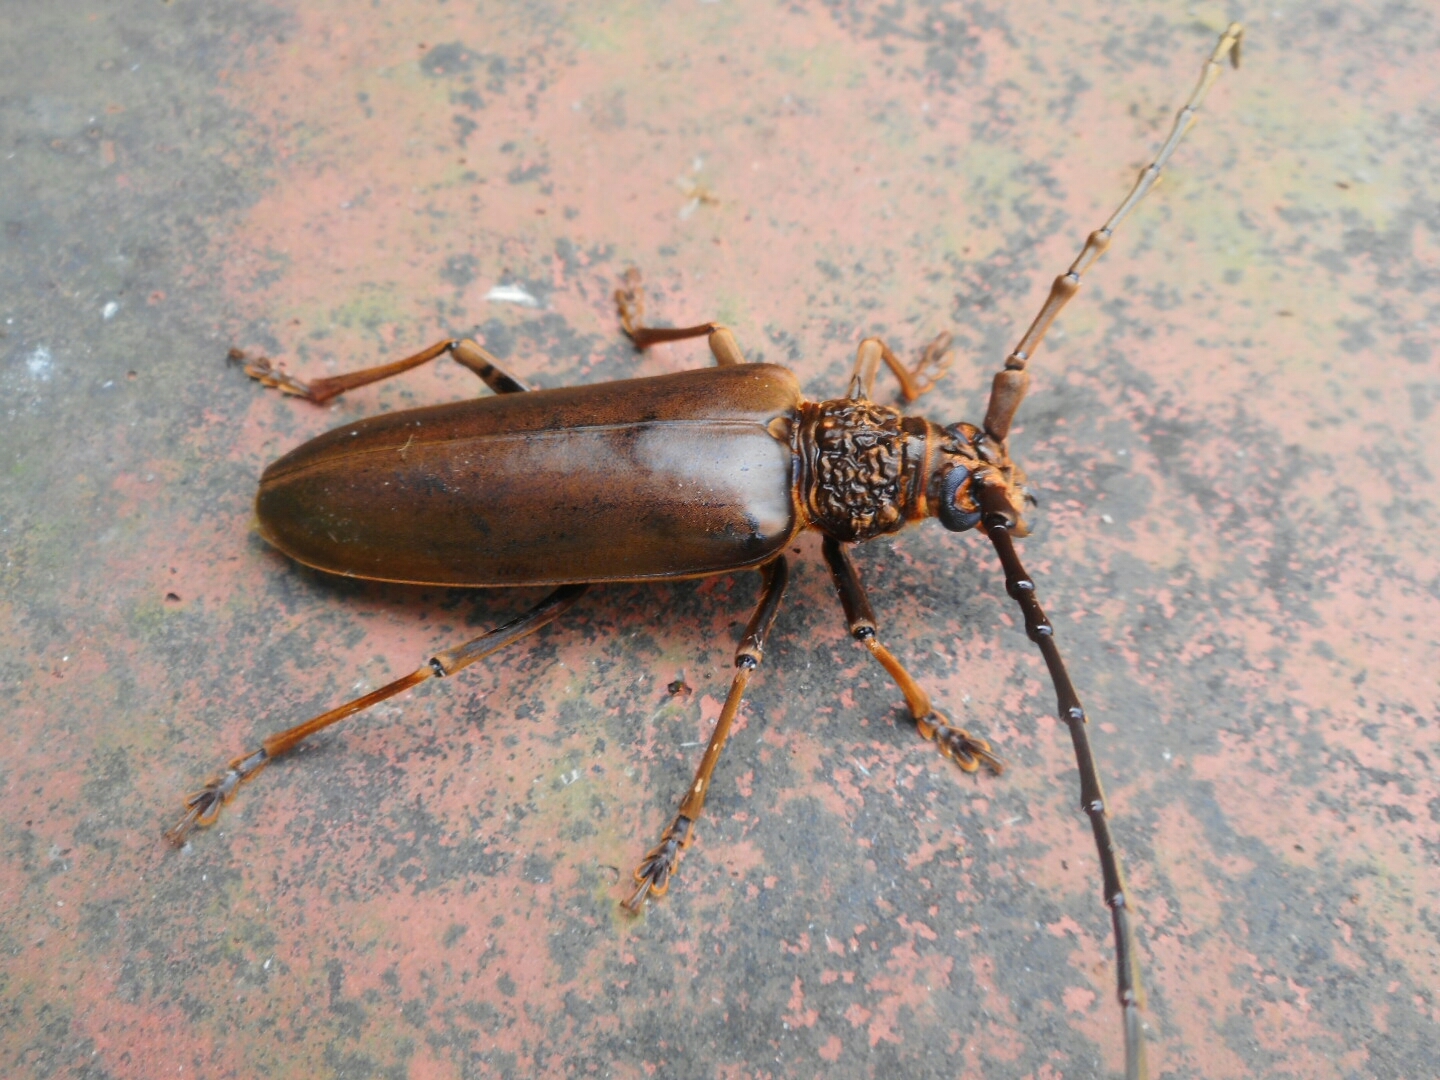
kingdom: Animalia
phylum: Arthropoda
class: Insecta
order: Coleoptera
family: Cerambycidae
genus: Nadezhdiella
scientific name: Nadezhdiella fulvopubens
